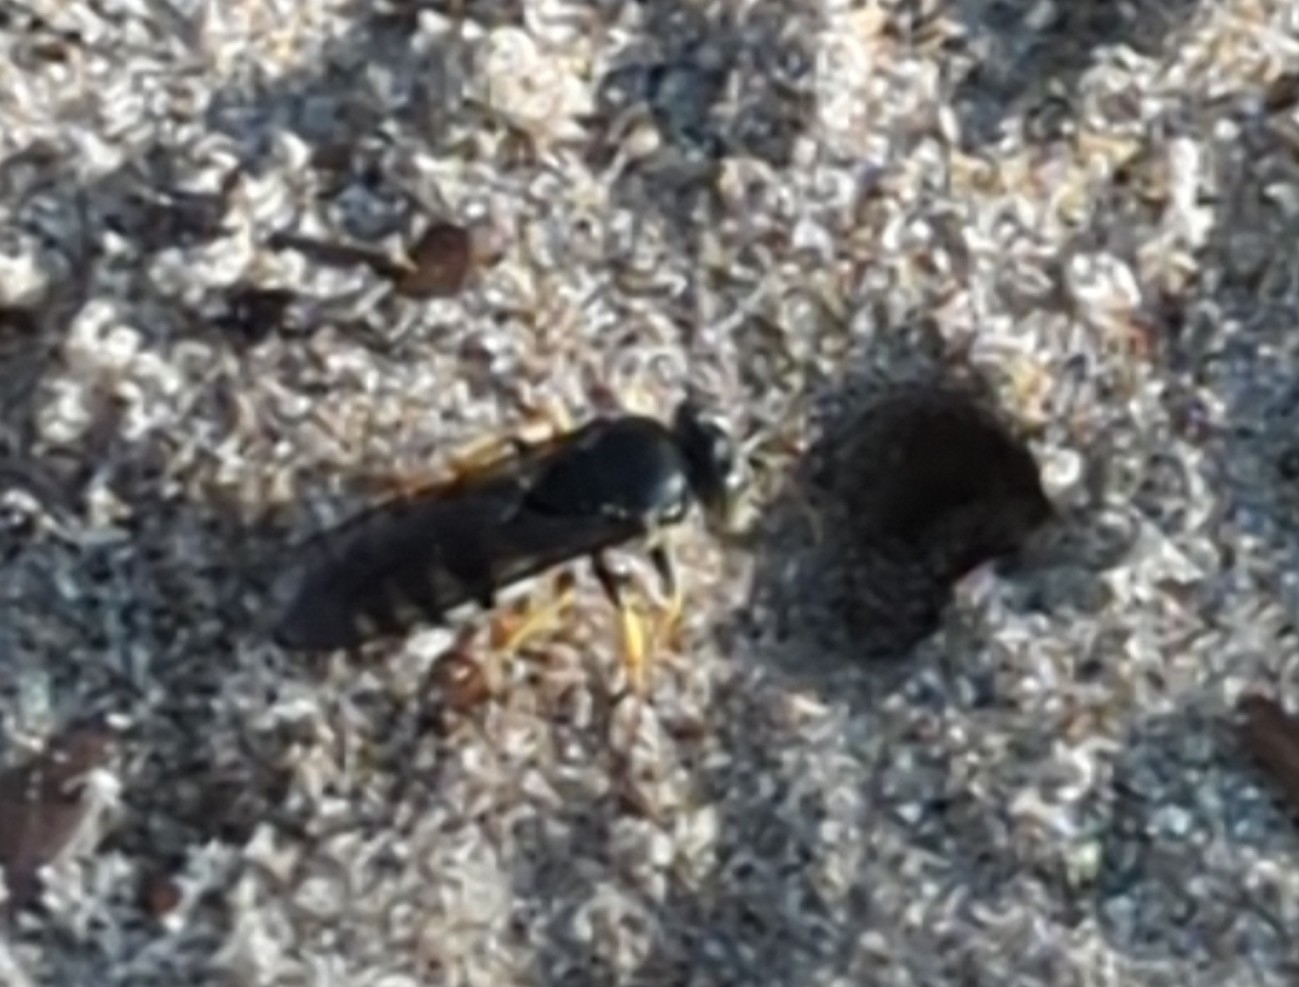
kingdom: Animalia
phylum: Arthropoda
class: Insecta
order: Hymenoptera
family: Crabronidae
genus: Bicyrtes
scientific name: Bicyrtes quadrifasciatus
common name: Four-banded stink bug hunter wasp
